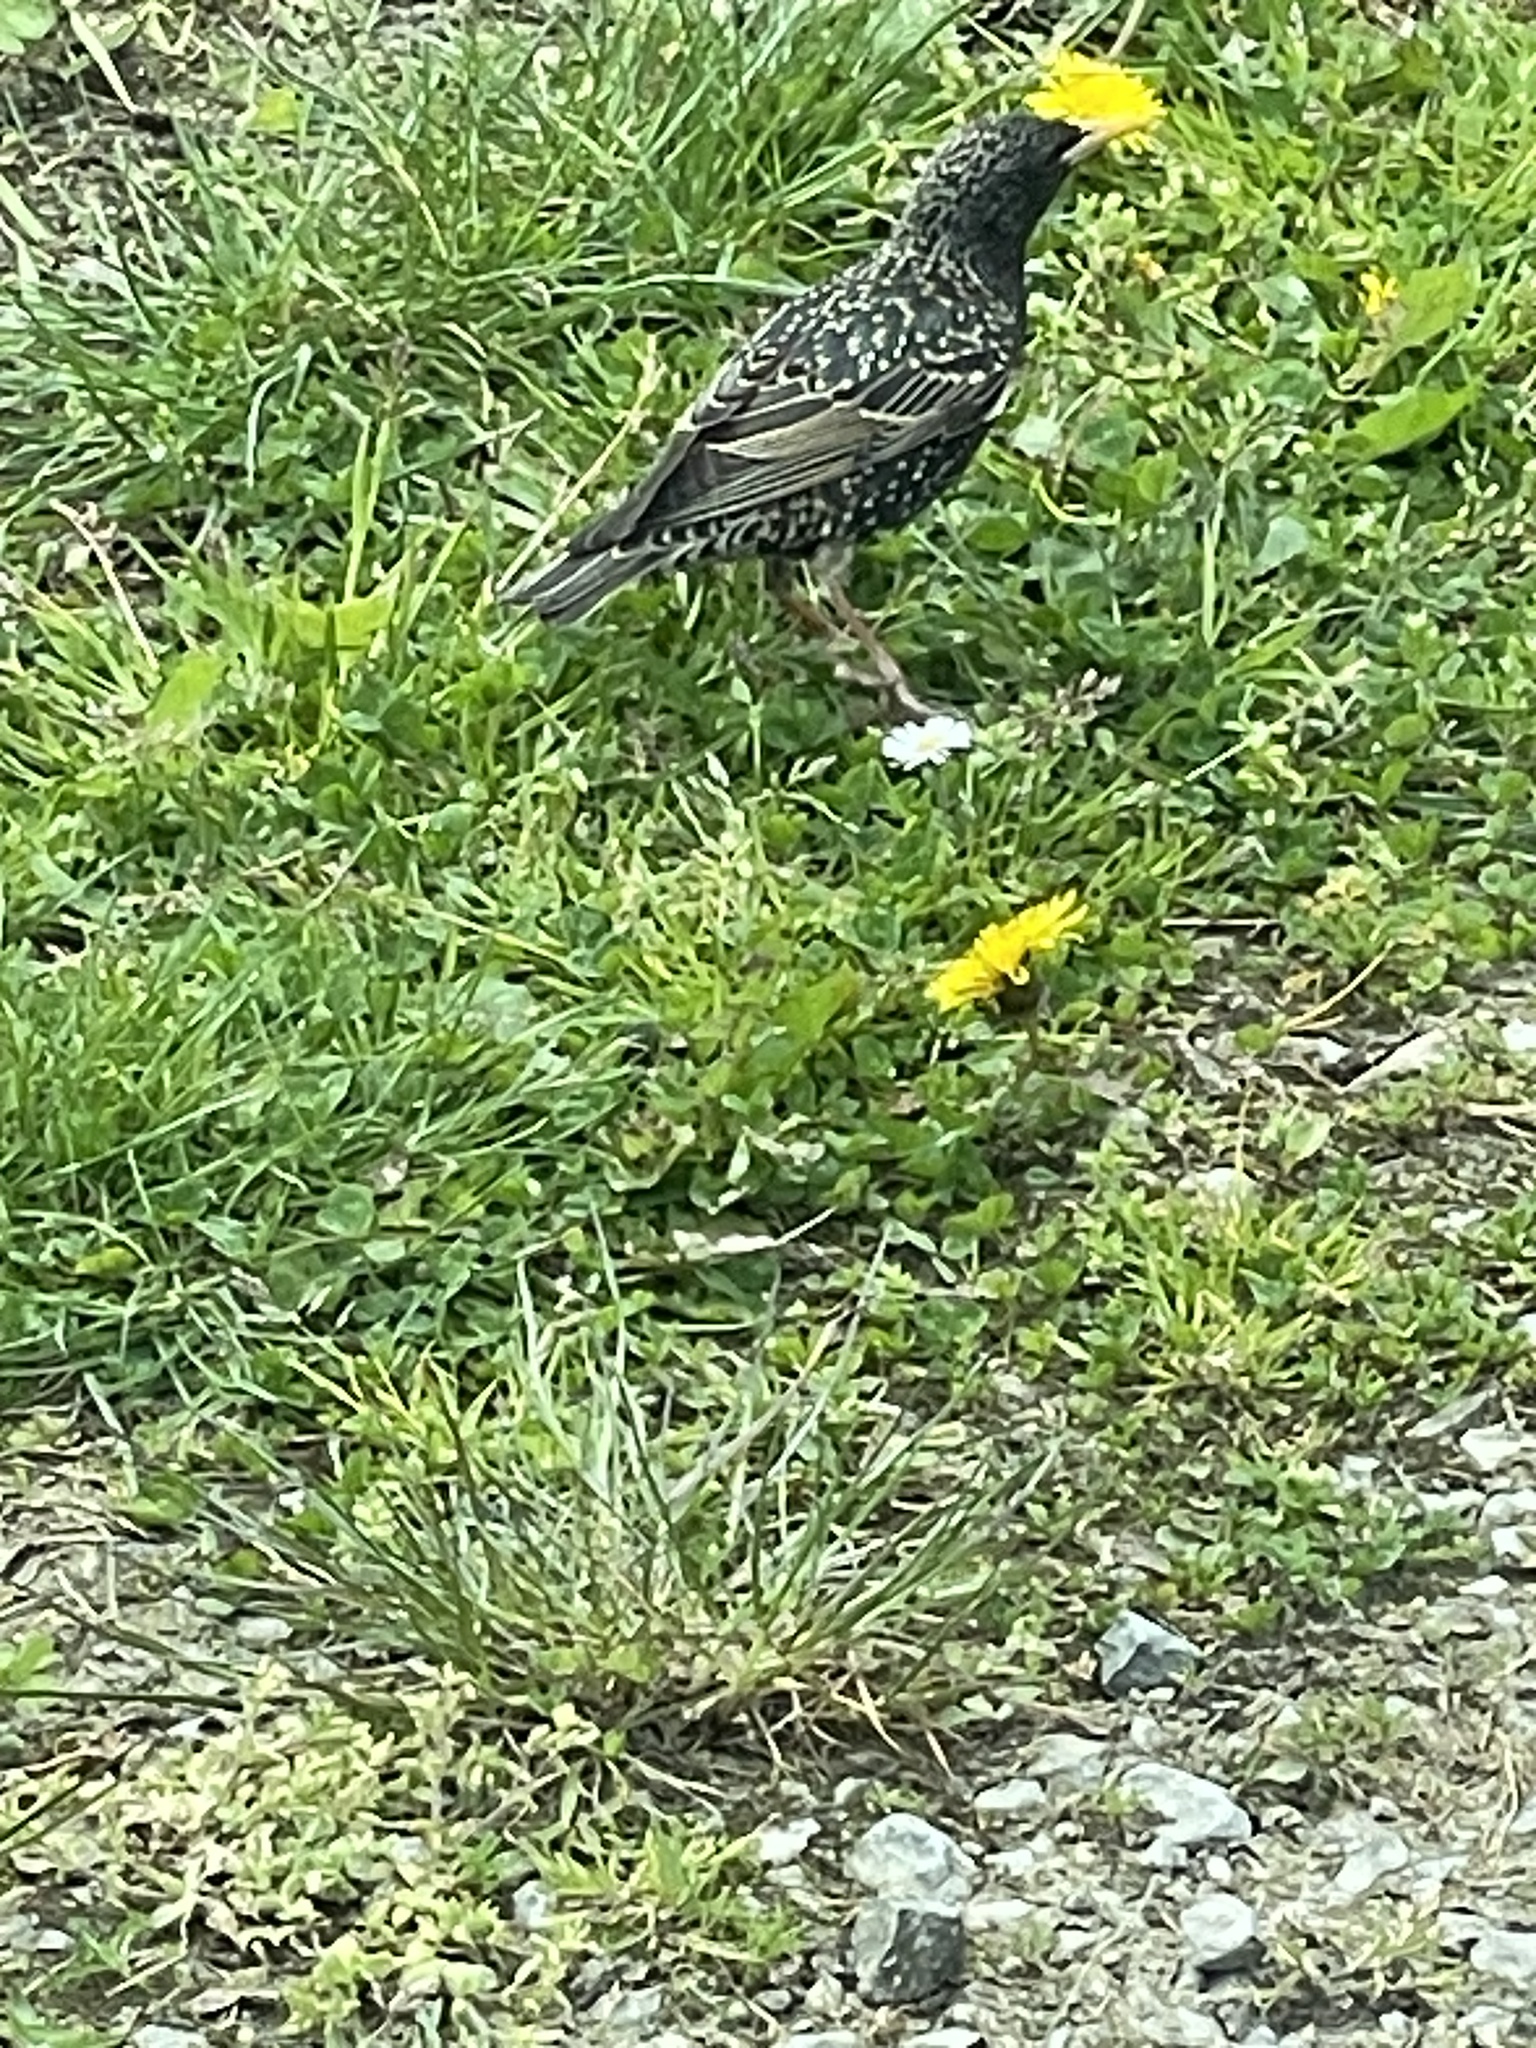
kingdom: Animalia
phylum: Chordata
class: Aves
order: Passeriformes
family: Sturnidae
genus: Sturnus
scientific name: Sturnus vulgaris
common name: Common starling
